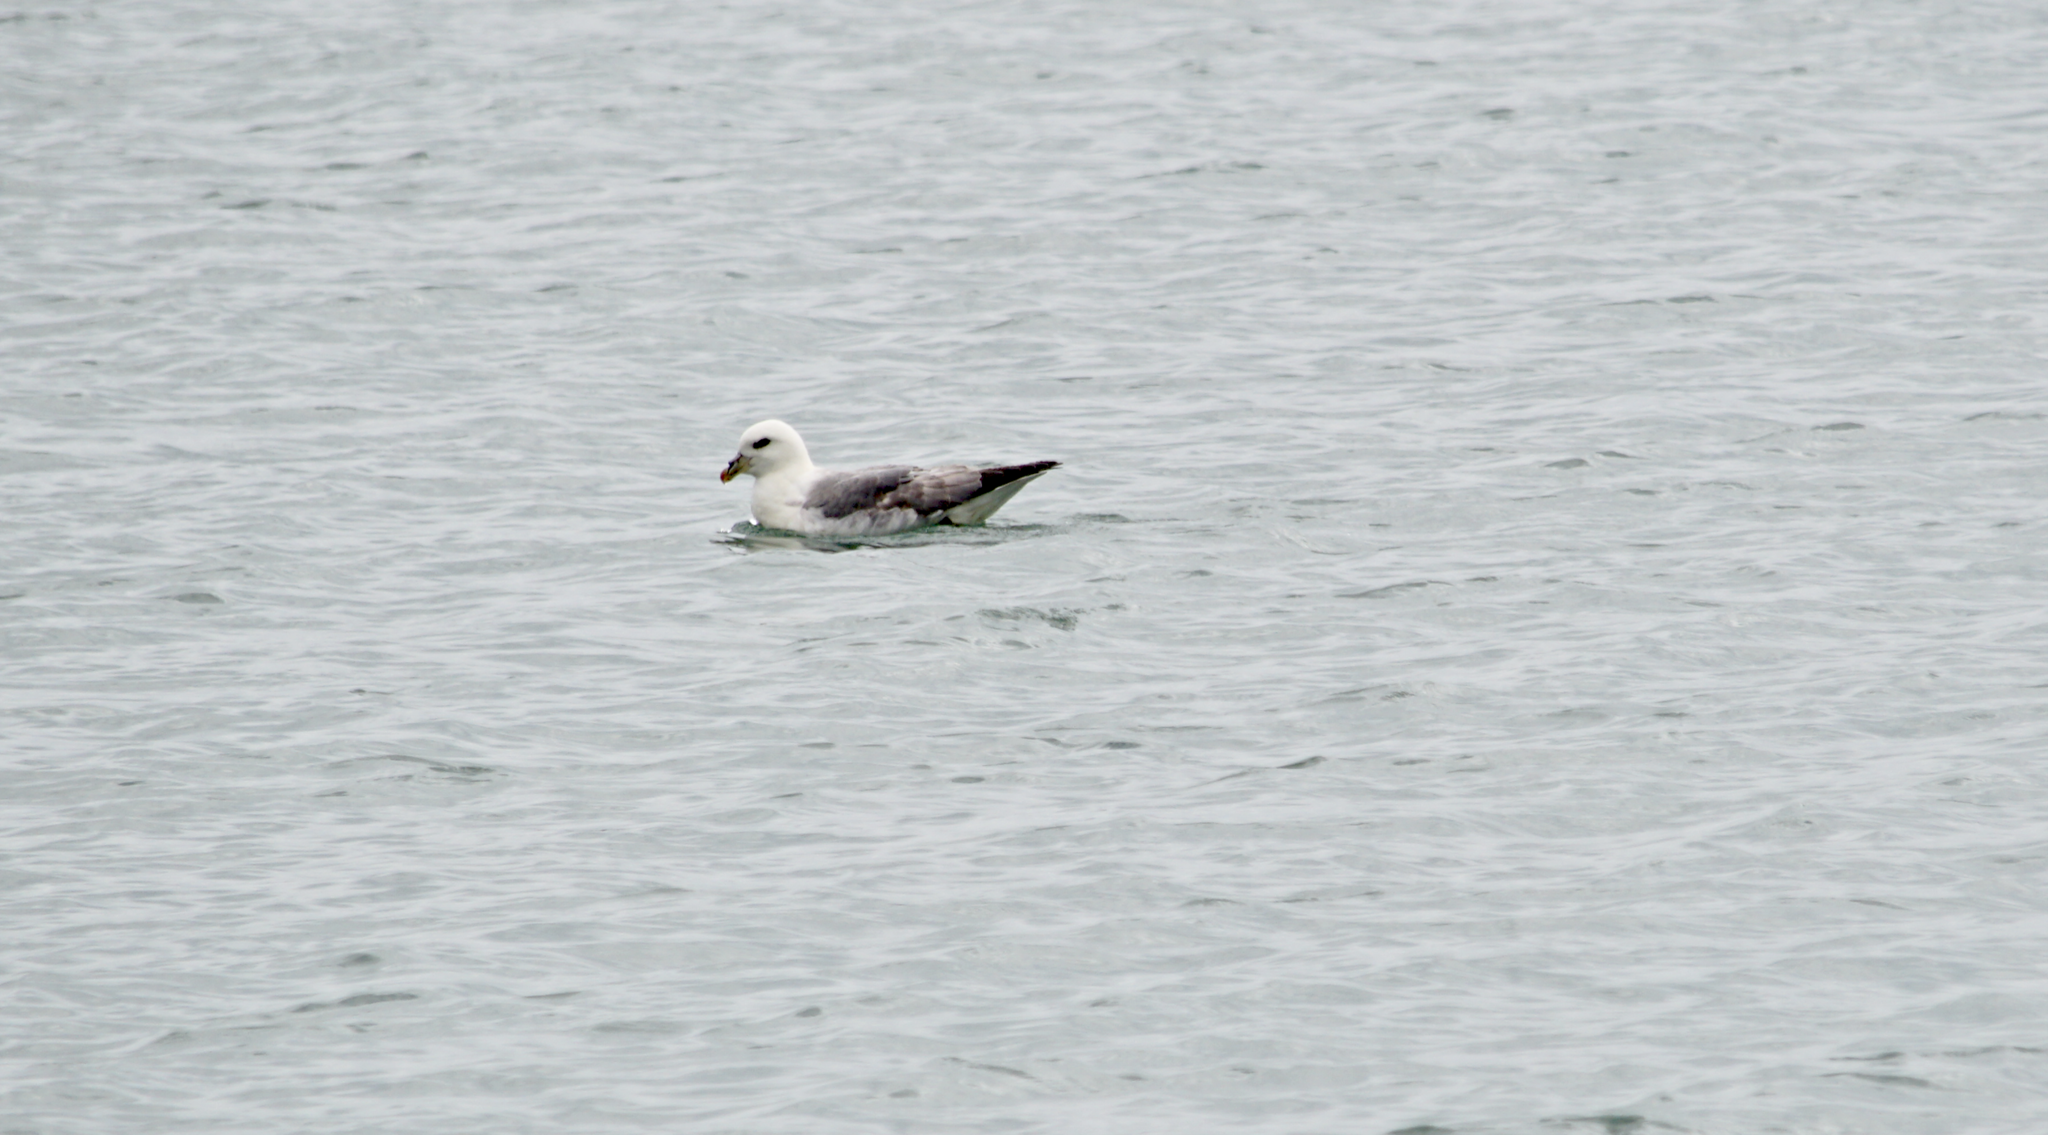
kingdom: Animalia
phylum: Chordata
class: Aves
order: Procellariiformes
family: Procellariidae
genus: Fulmarus
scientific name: Fulmarus glacialis
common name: Northern fulmar
